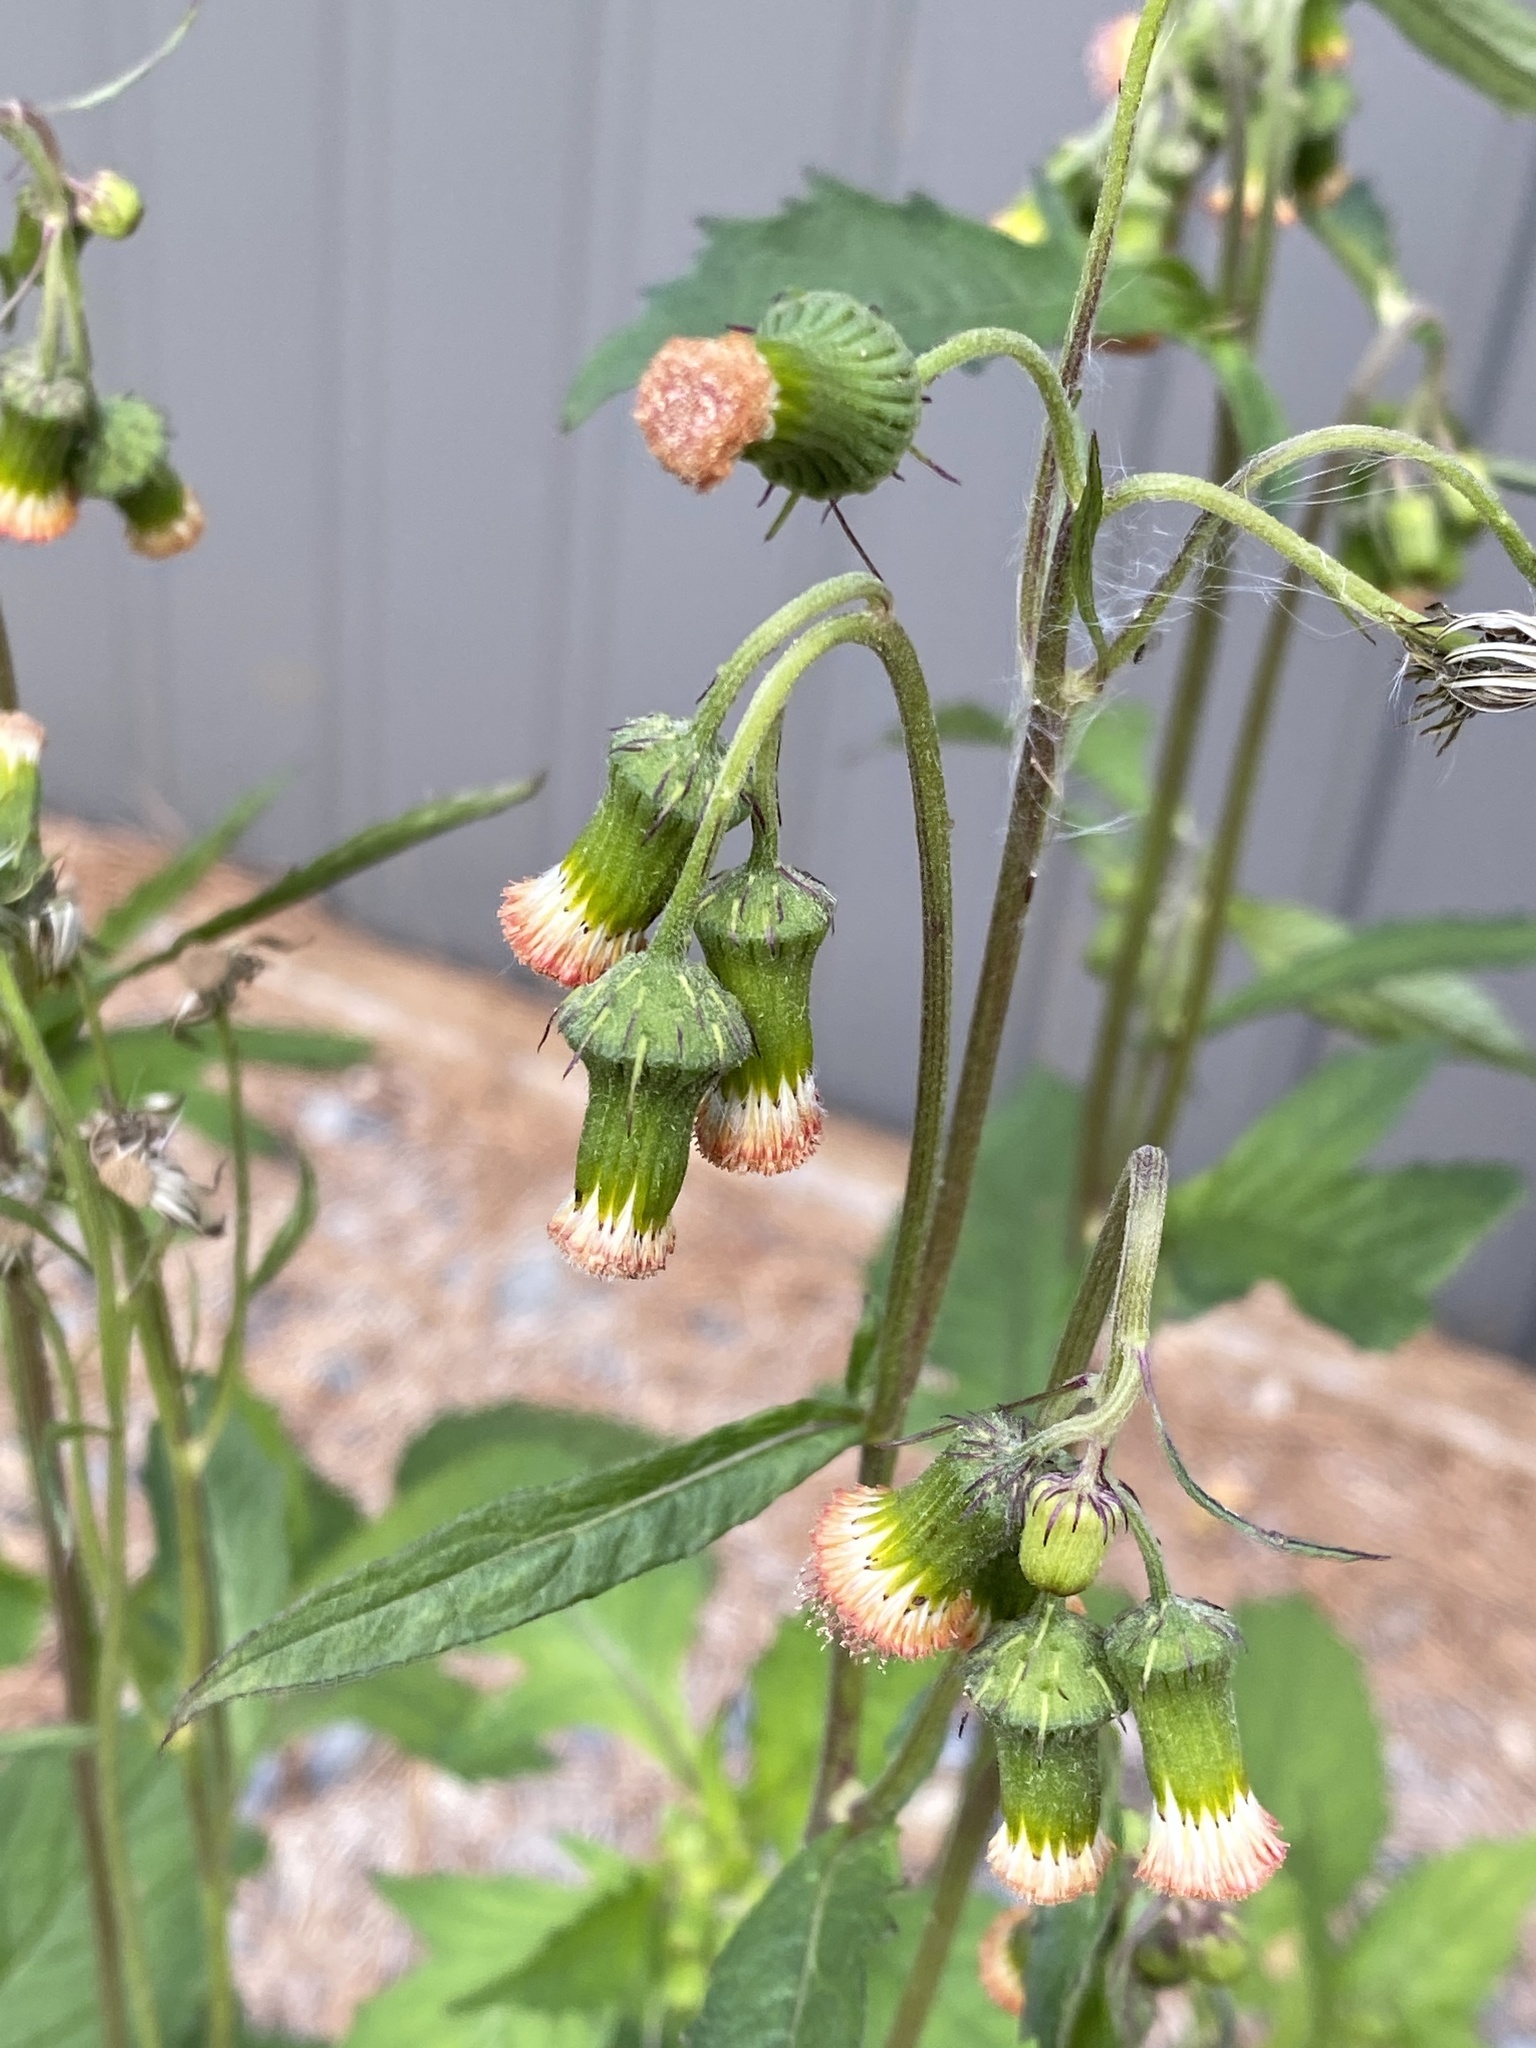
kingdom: Plantae
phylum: Tracheophyta
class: Magnoliopsida
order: Asterales
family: Asteraceae
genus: Crassocephalum
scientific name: Crassocephalum crepidioides
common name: Redflower ragleaf
